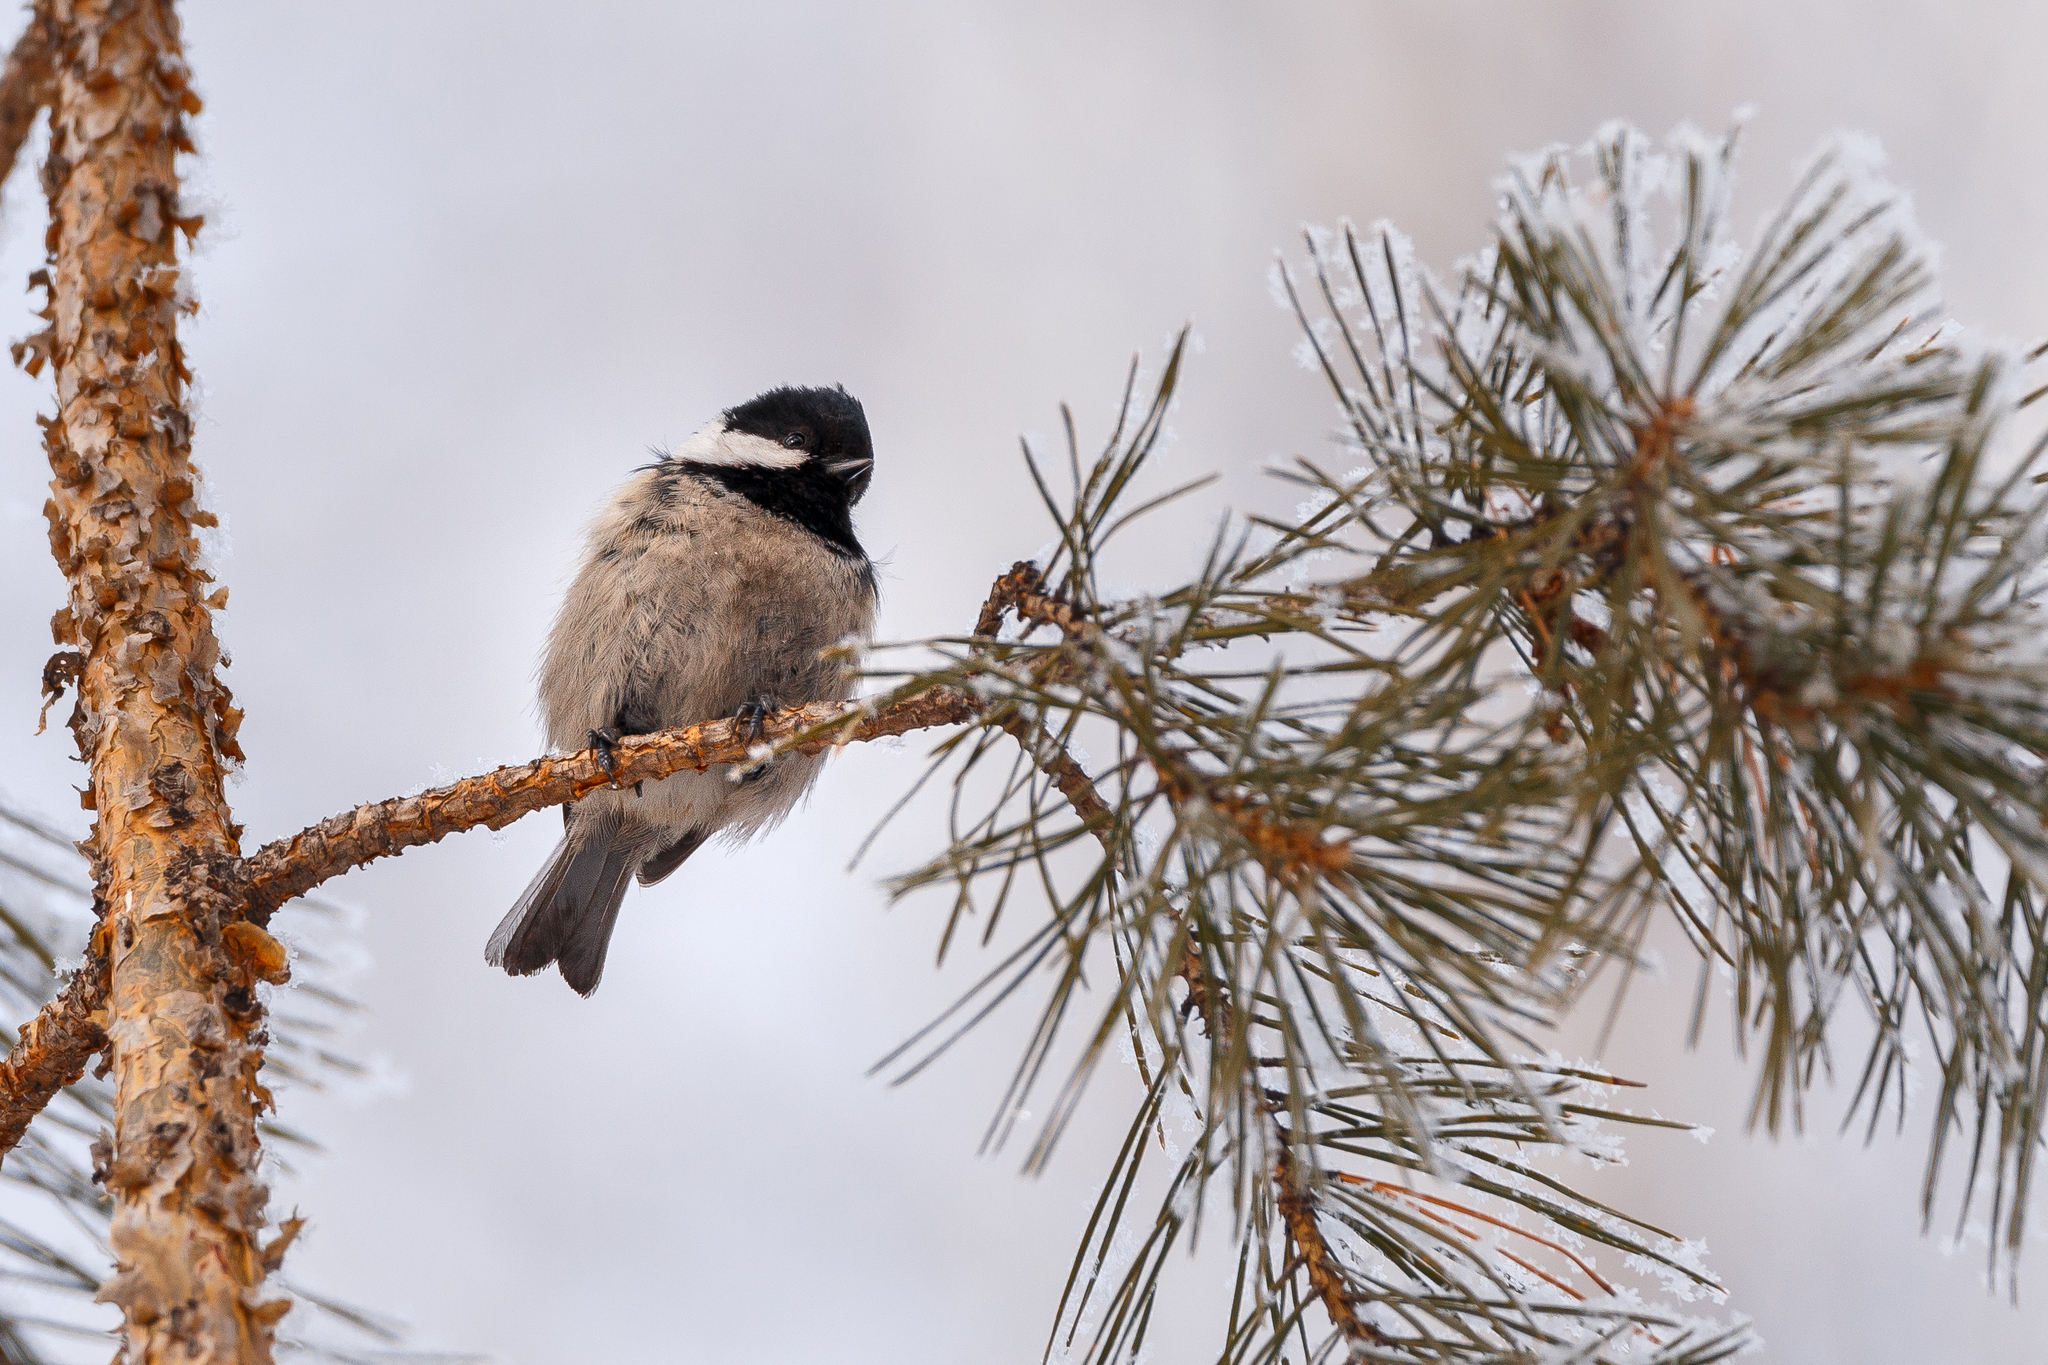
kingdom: Animalia
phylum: Chordata
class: Aves
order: Passeriformes
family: Paridae
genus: Periparus
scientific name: Periparus ater
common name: Coal tit
